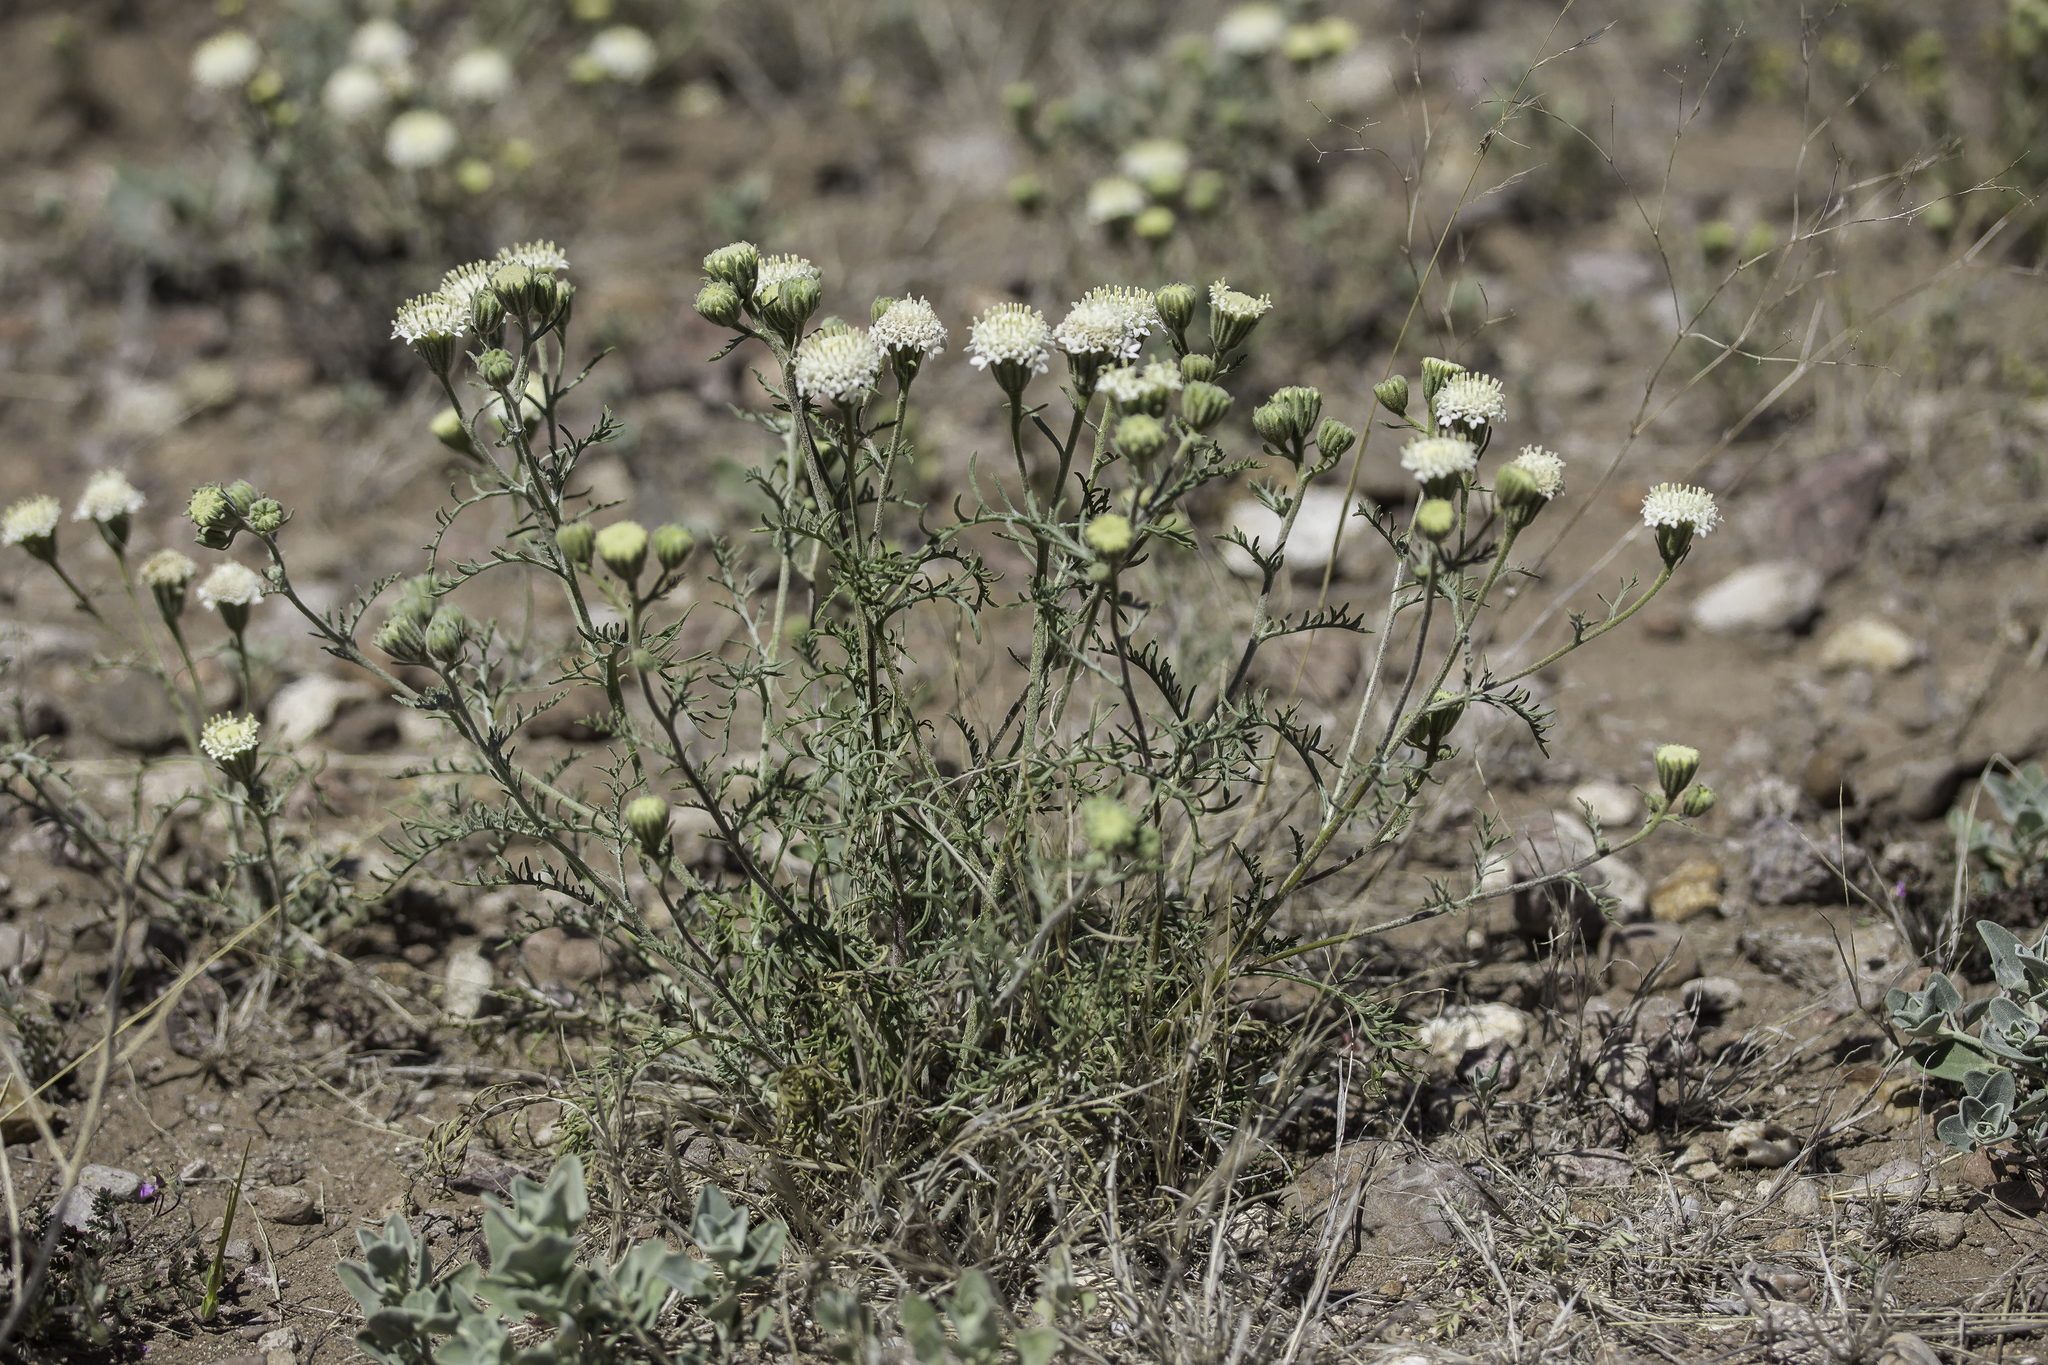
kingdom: Plantae
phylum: Tracheophyta
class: Magnoliopsida
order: Asterales
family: Asteraceae
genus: Chaenactis
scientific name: Chaenactis stevioides
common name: Desert pincushion
